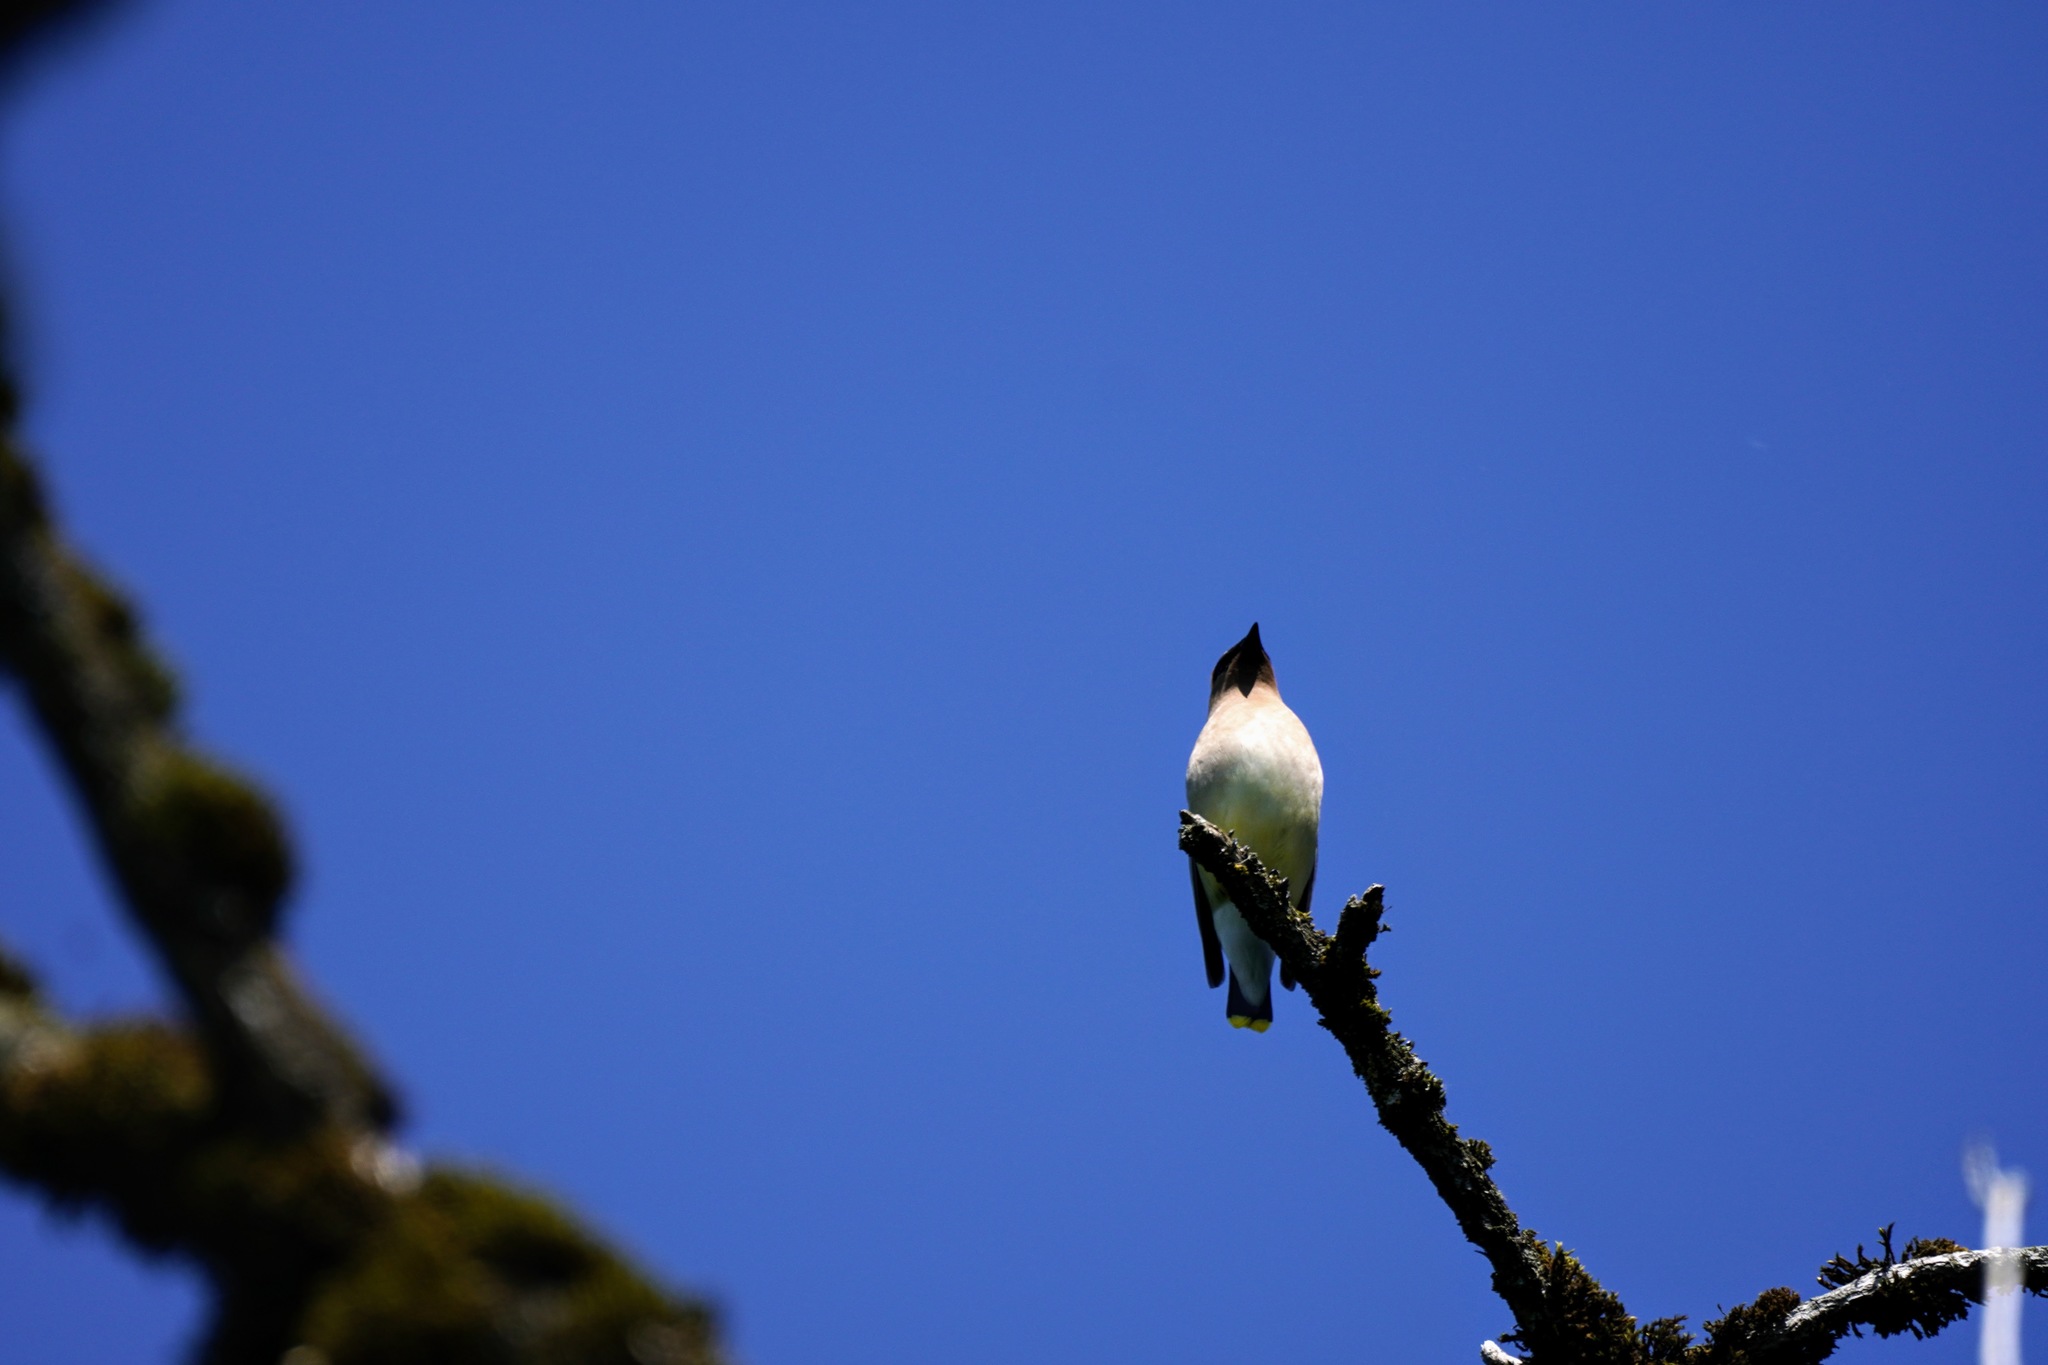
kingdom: Animalia
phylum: Chordata
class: Aves
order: Passeriformes
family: Bombycillidae
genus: Bombycilla
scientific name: Bombycilla cedrorum
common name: Cedar waxwing
